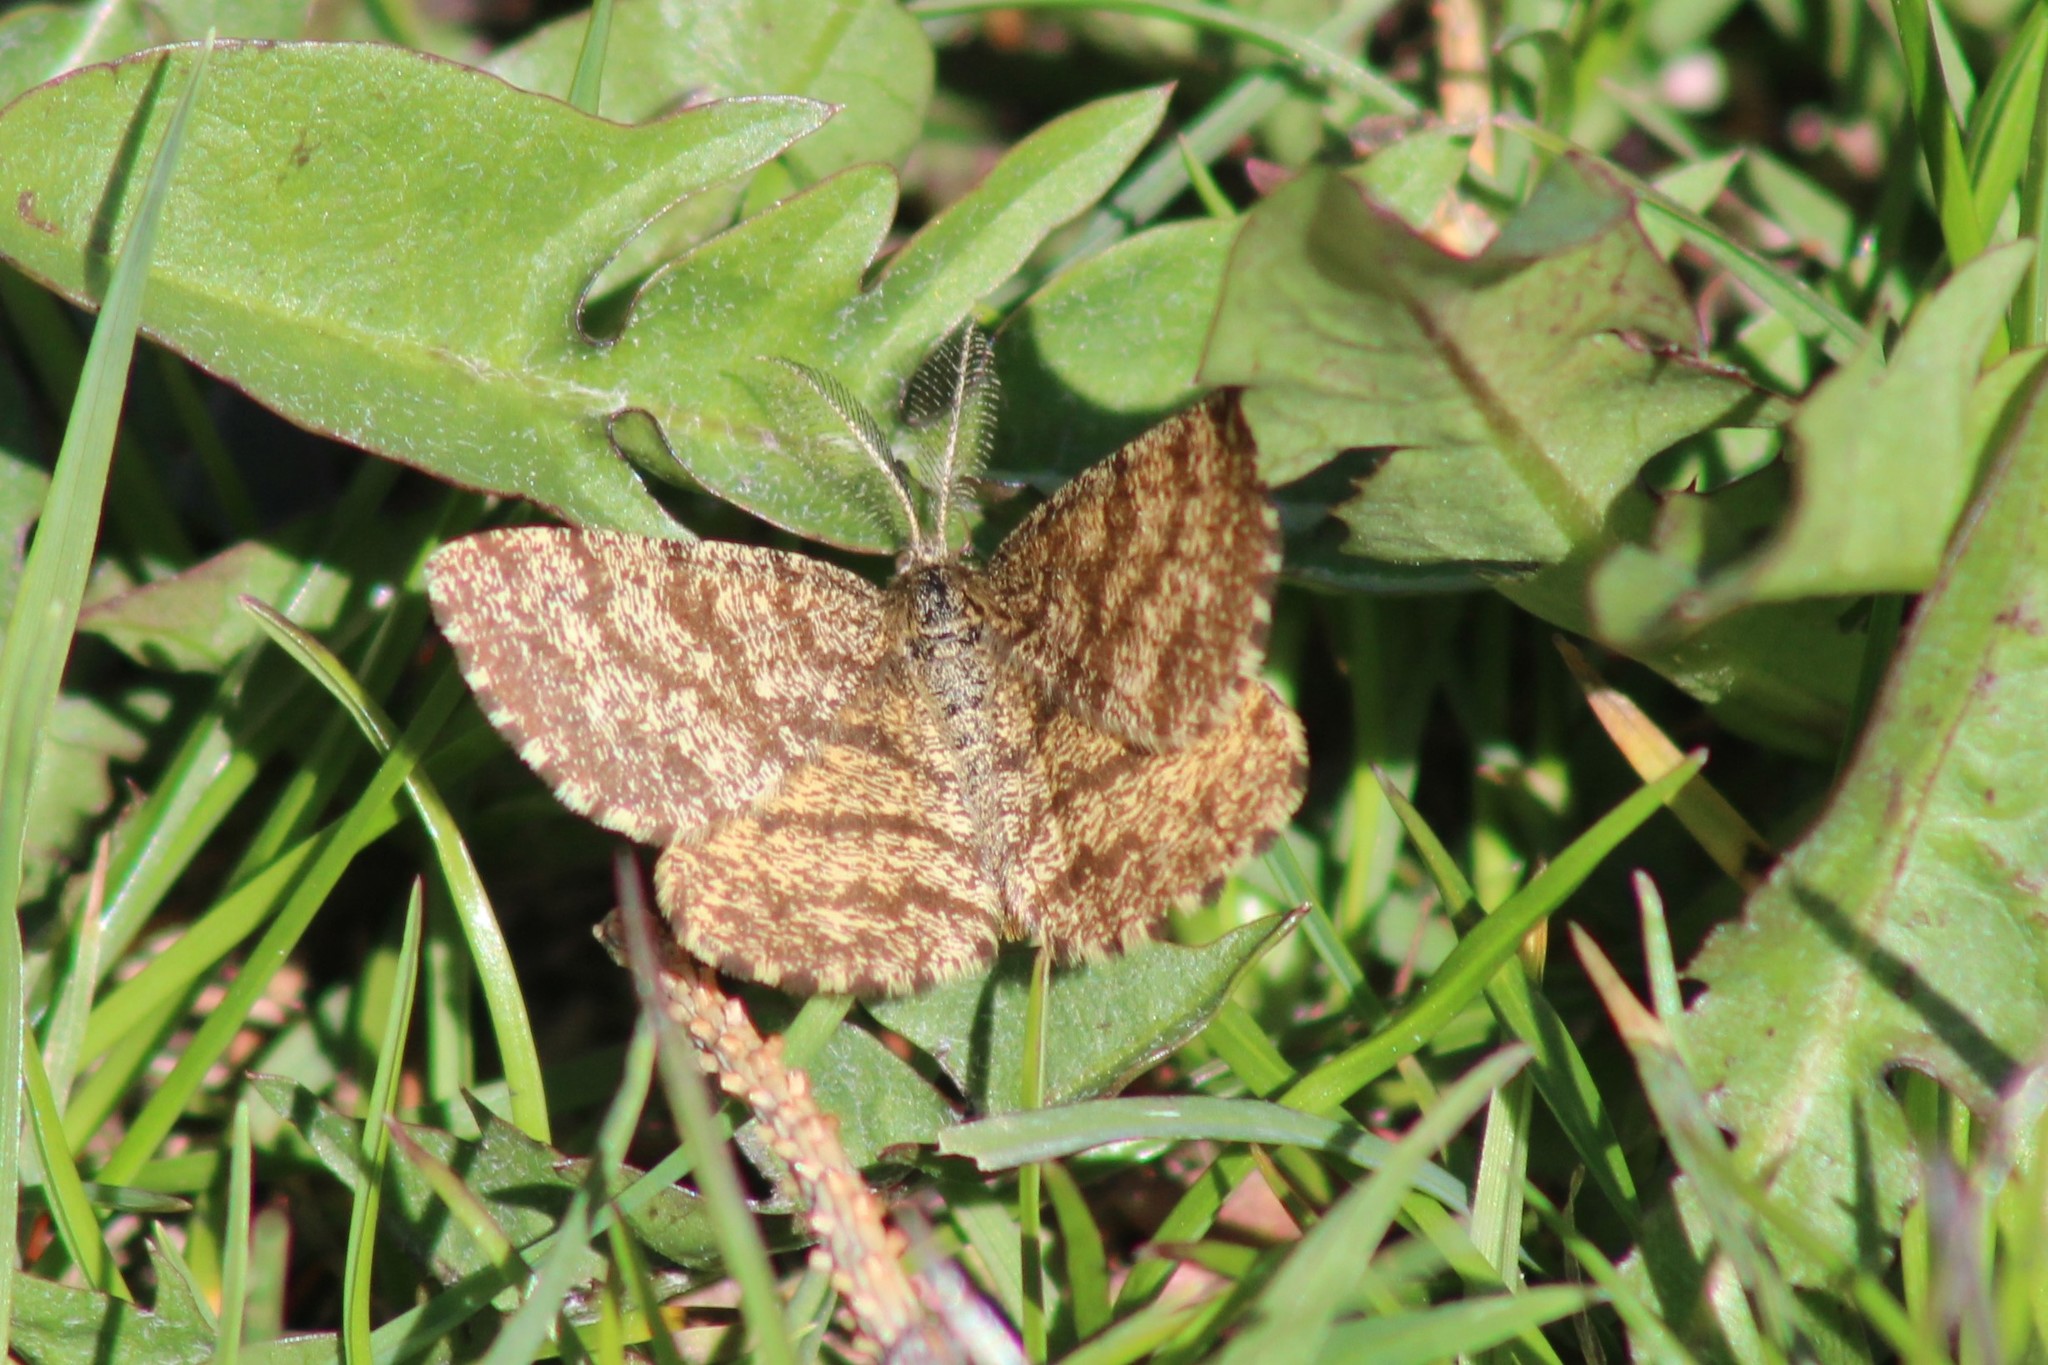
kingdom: Animalia
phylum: Arthropoda
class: Insecta
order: Lepidoptera
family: Geometridae
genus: Ematurga
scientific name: Ematurga atomaria
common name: Common heath
